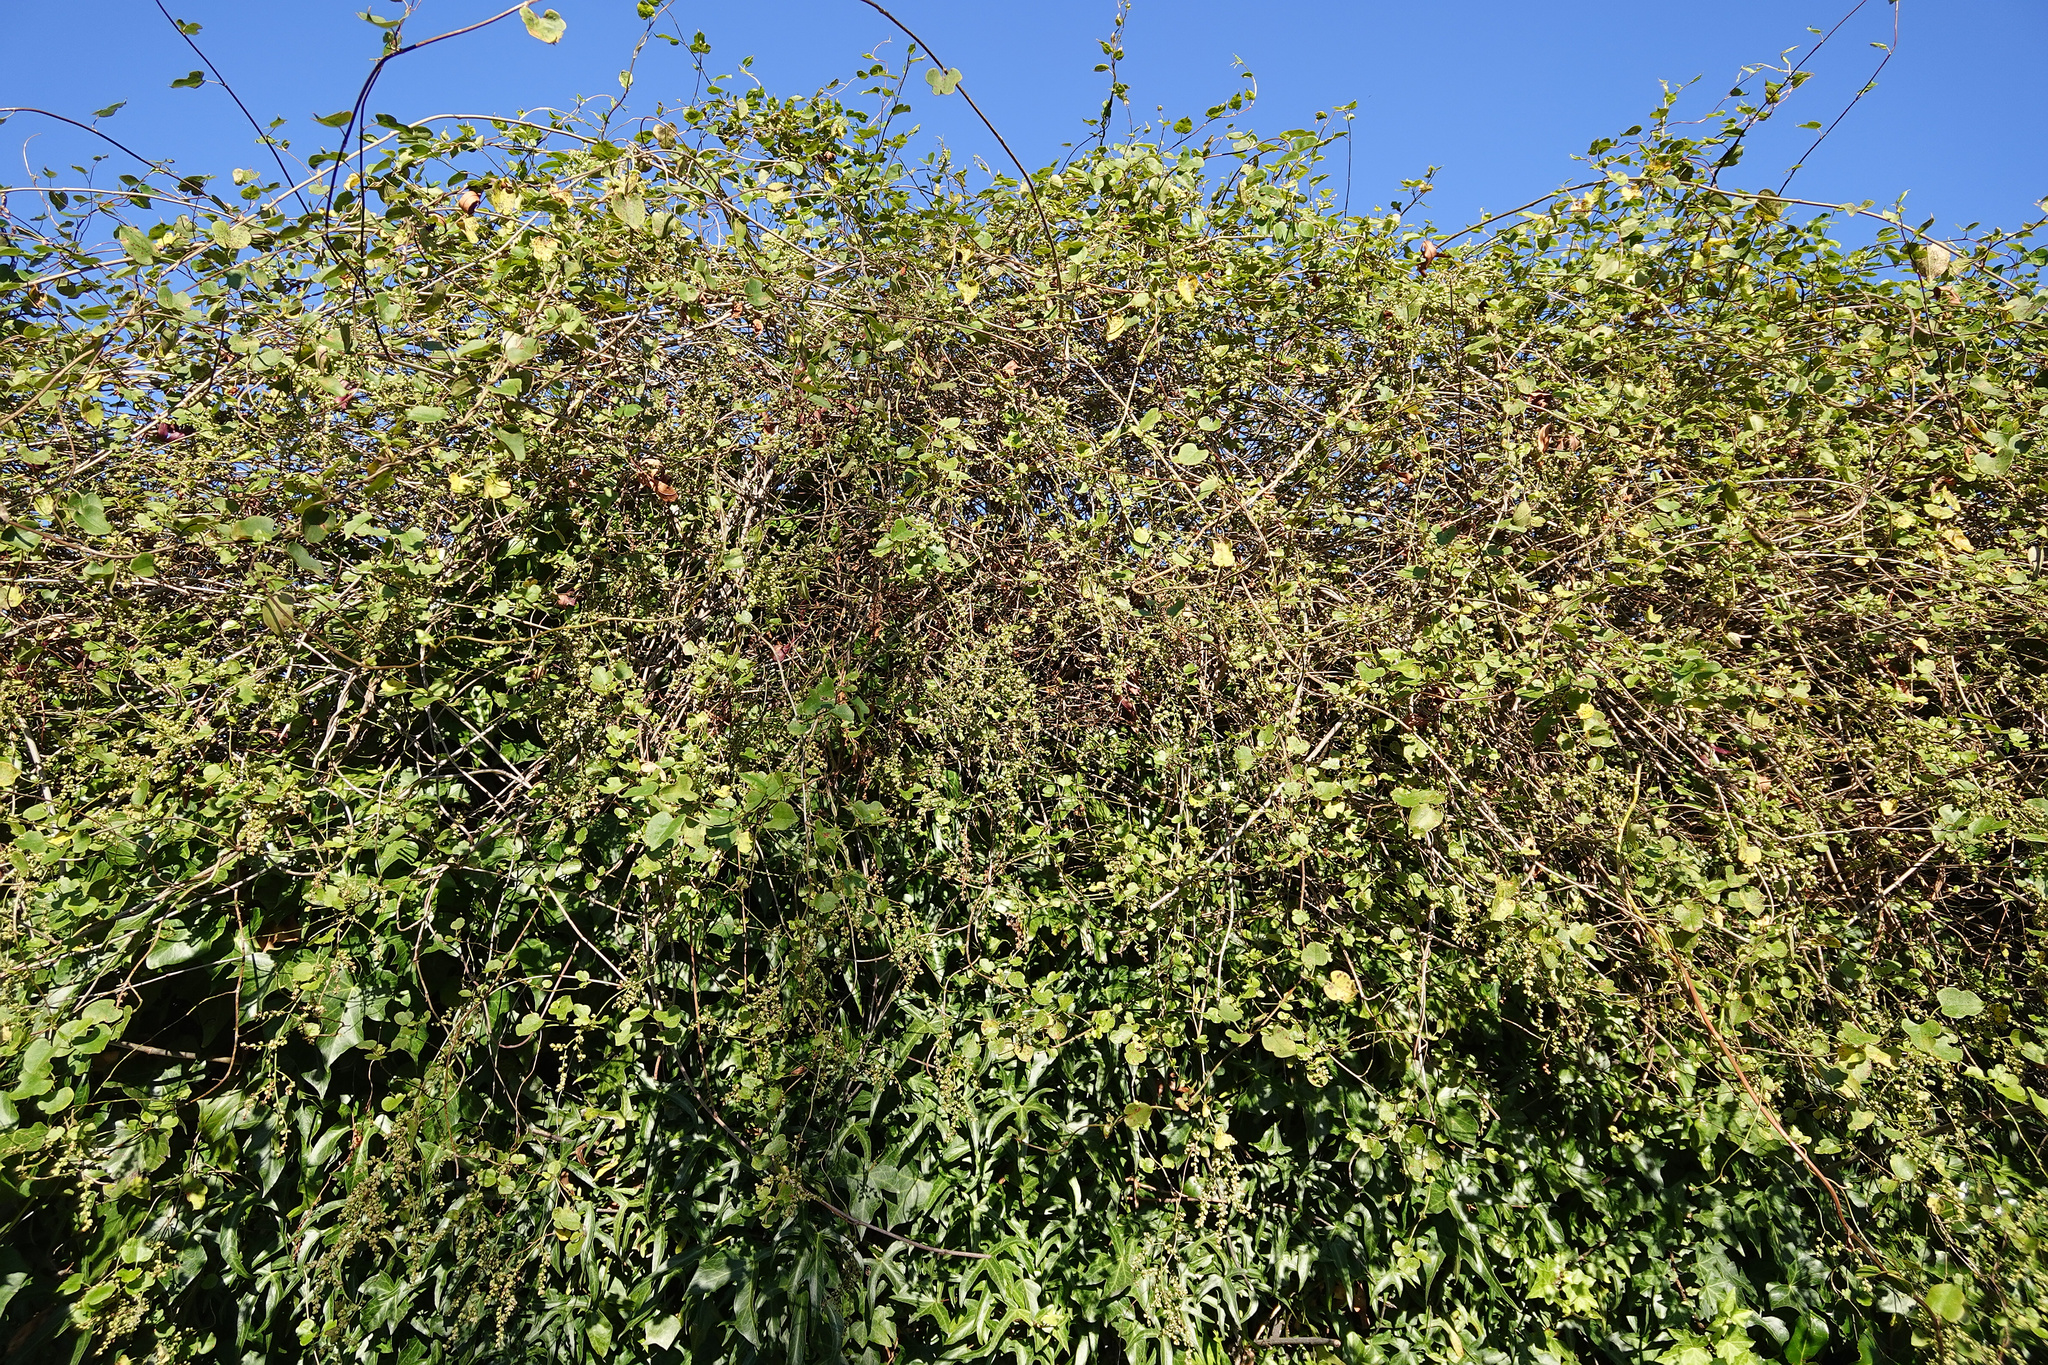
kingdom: Plantae
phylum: Tracheophyta
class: Magnoliopsida
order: Caryophyllales
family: Polygonaceae
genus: Muehlenbeckia
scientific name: Muehlenbeckia australis
